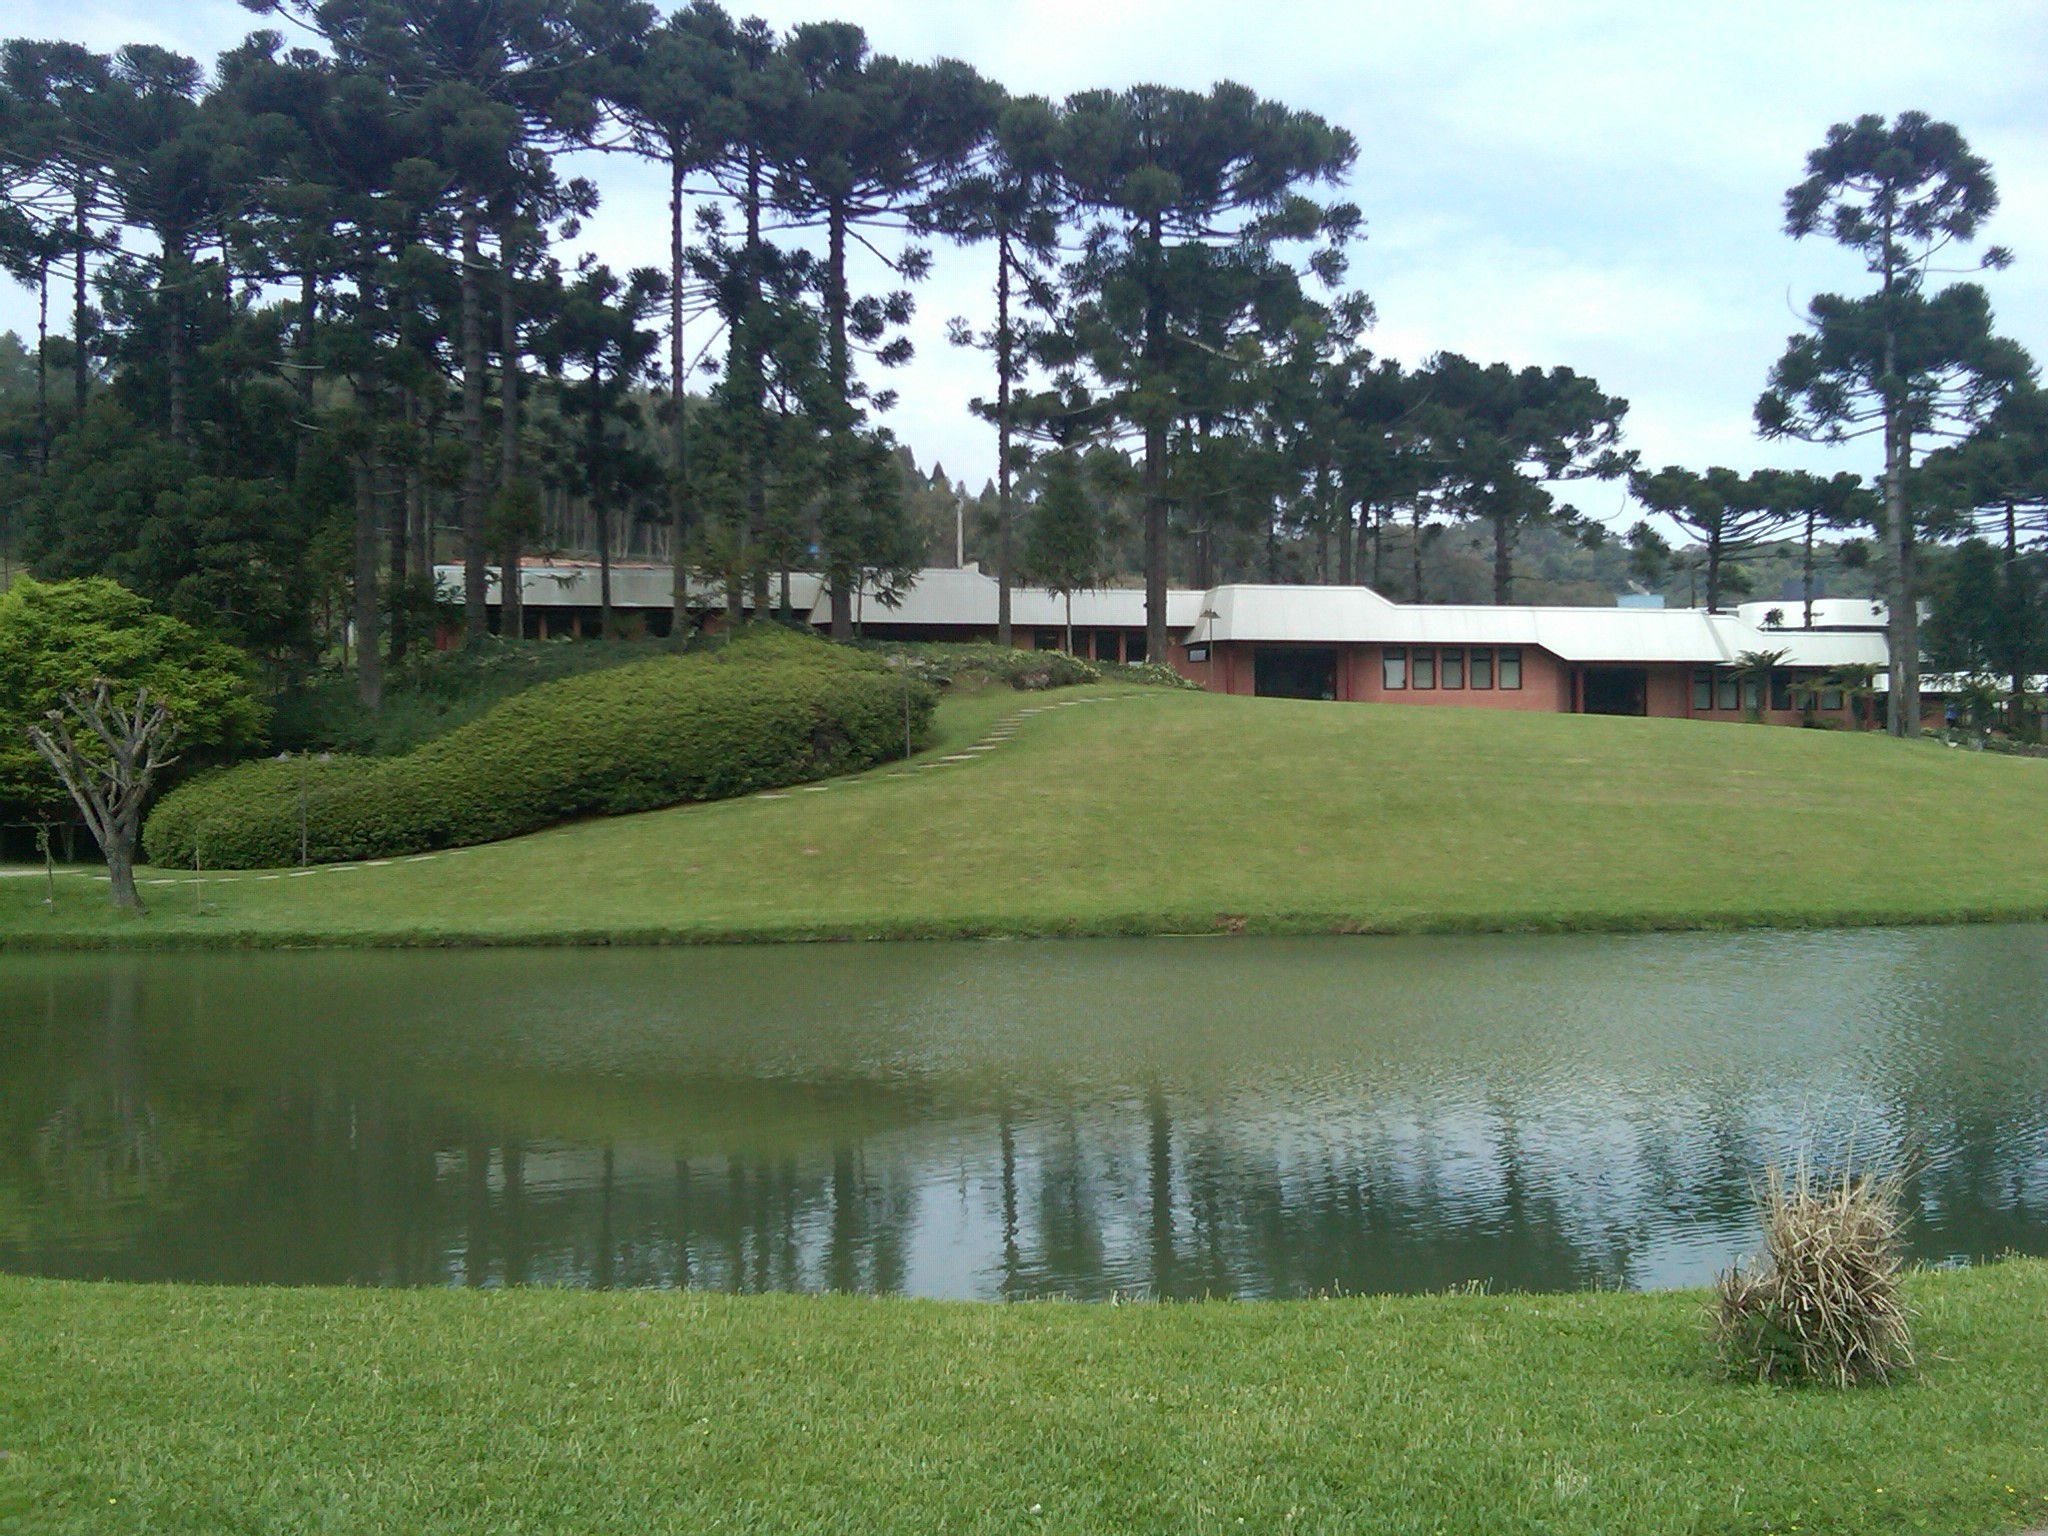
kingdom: Plantae
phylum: Tracheophyta
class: Pinopsida
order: Pinales
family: Araucariaceae
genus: Araucaria
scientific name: Araucaria angustifolia
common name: Candelabra tree
